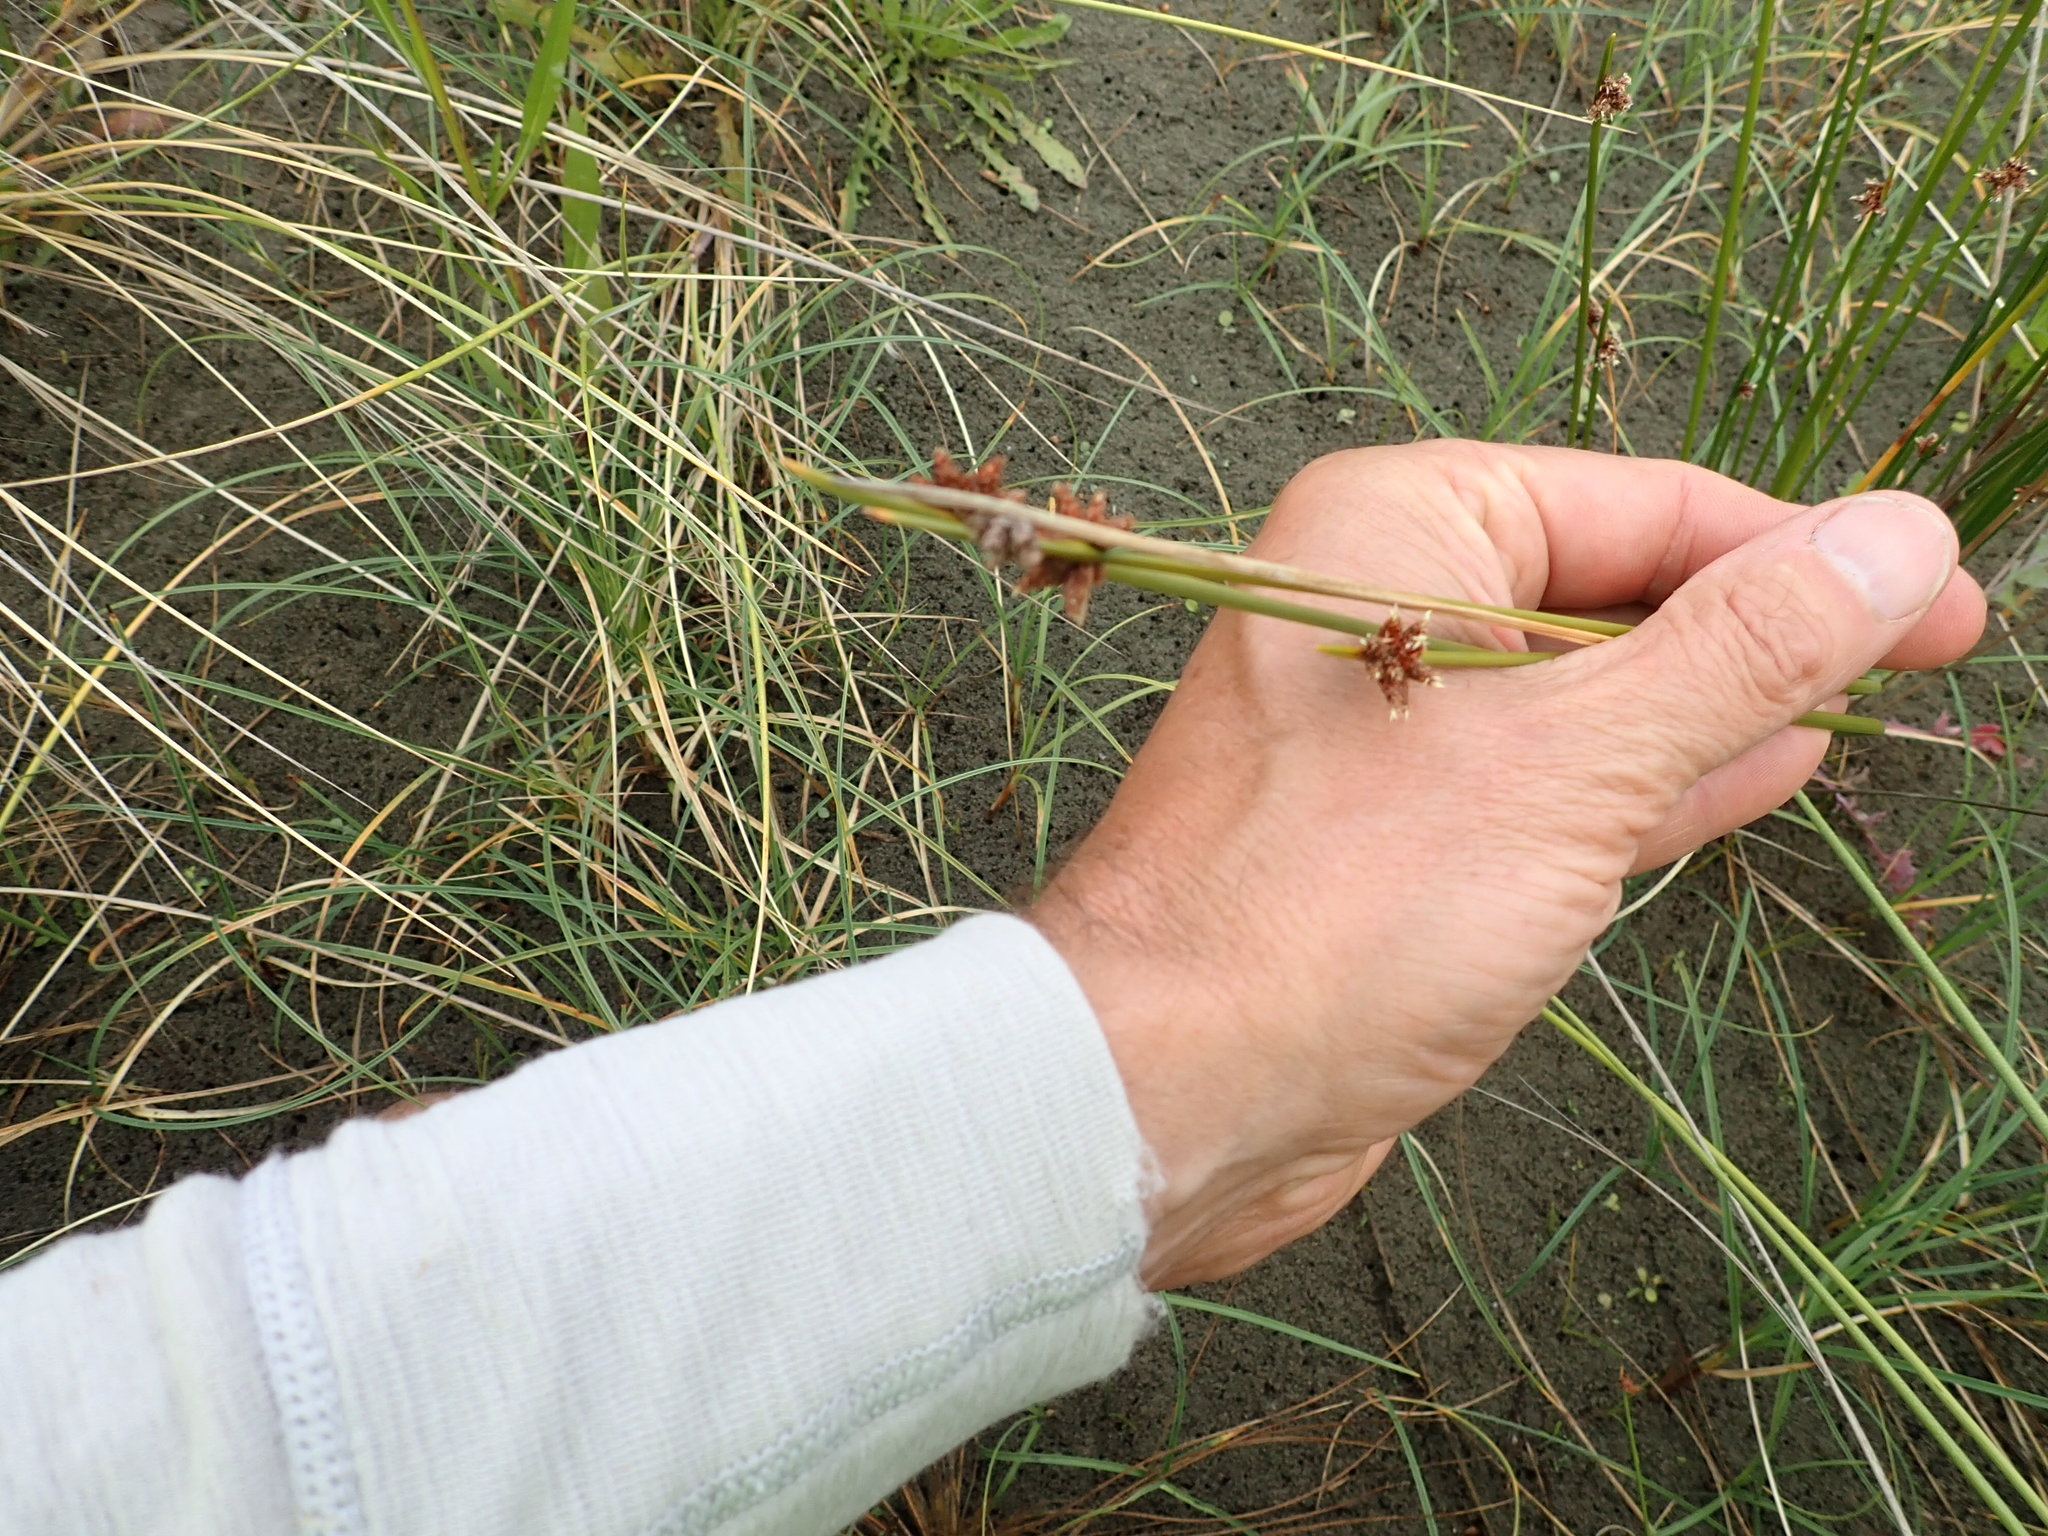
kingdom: Plantae
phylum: Tracheophyta
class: Liliopsida
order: Poales
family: Cyperaceae
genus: Ficinia
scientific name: Ficinia nodosa
